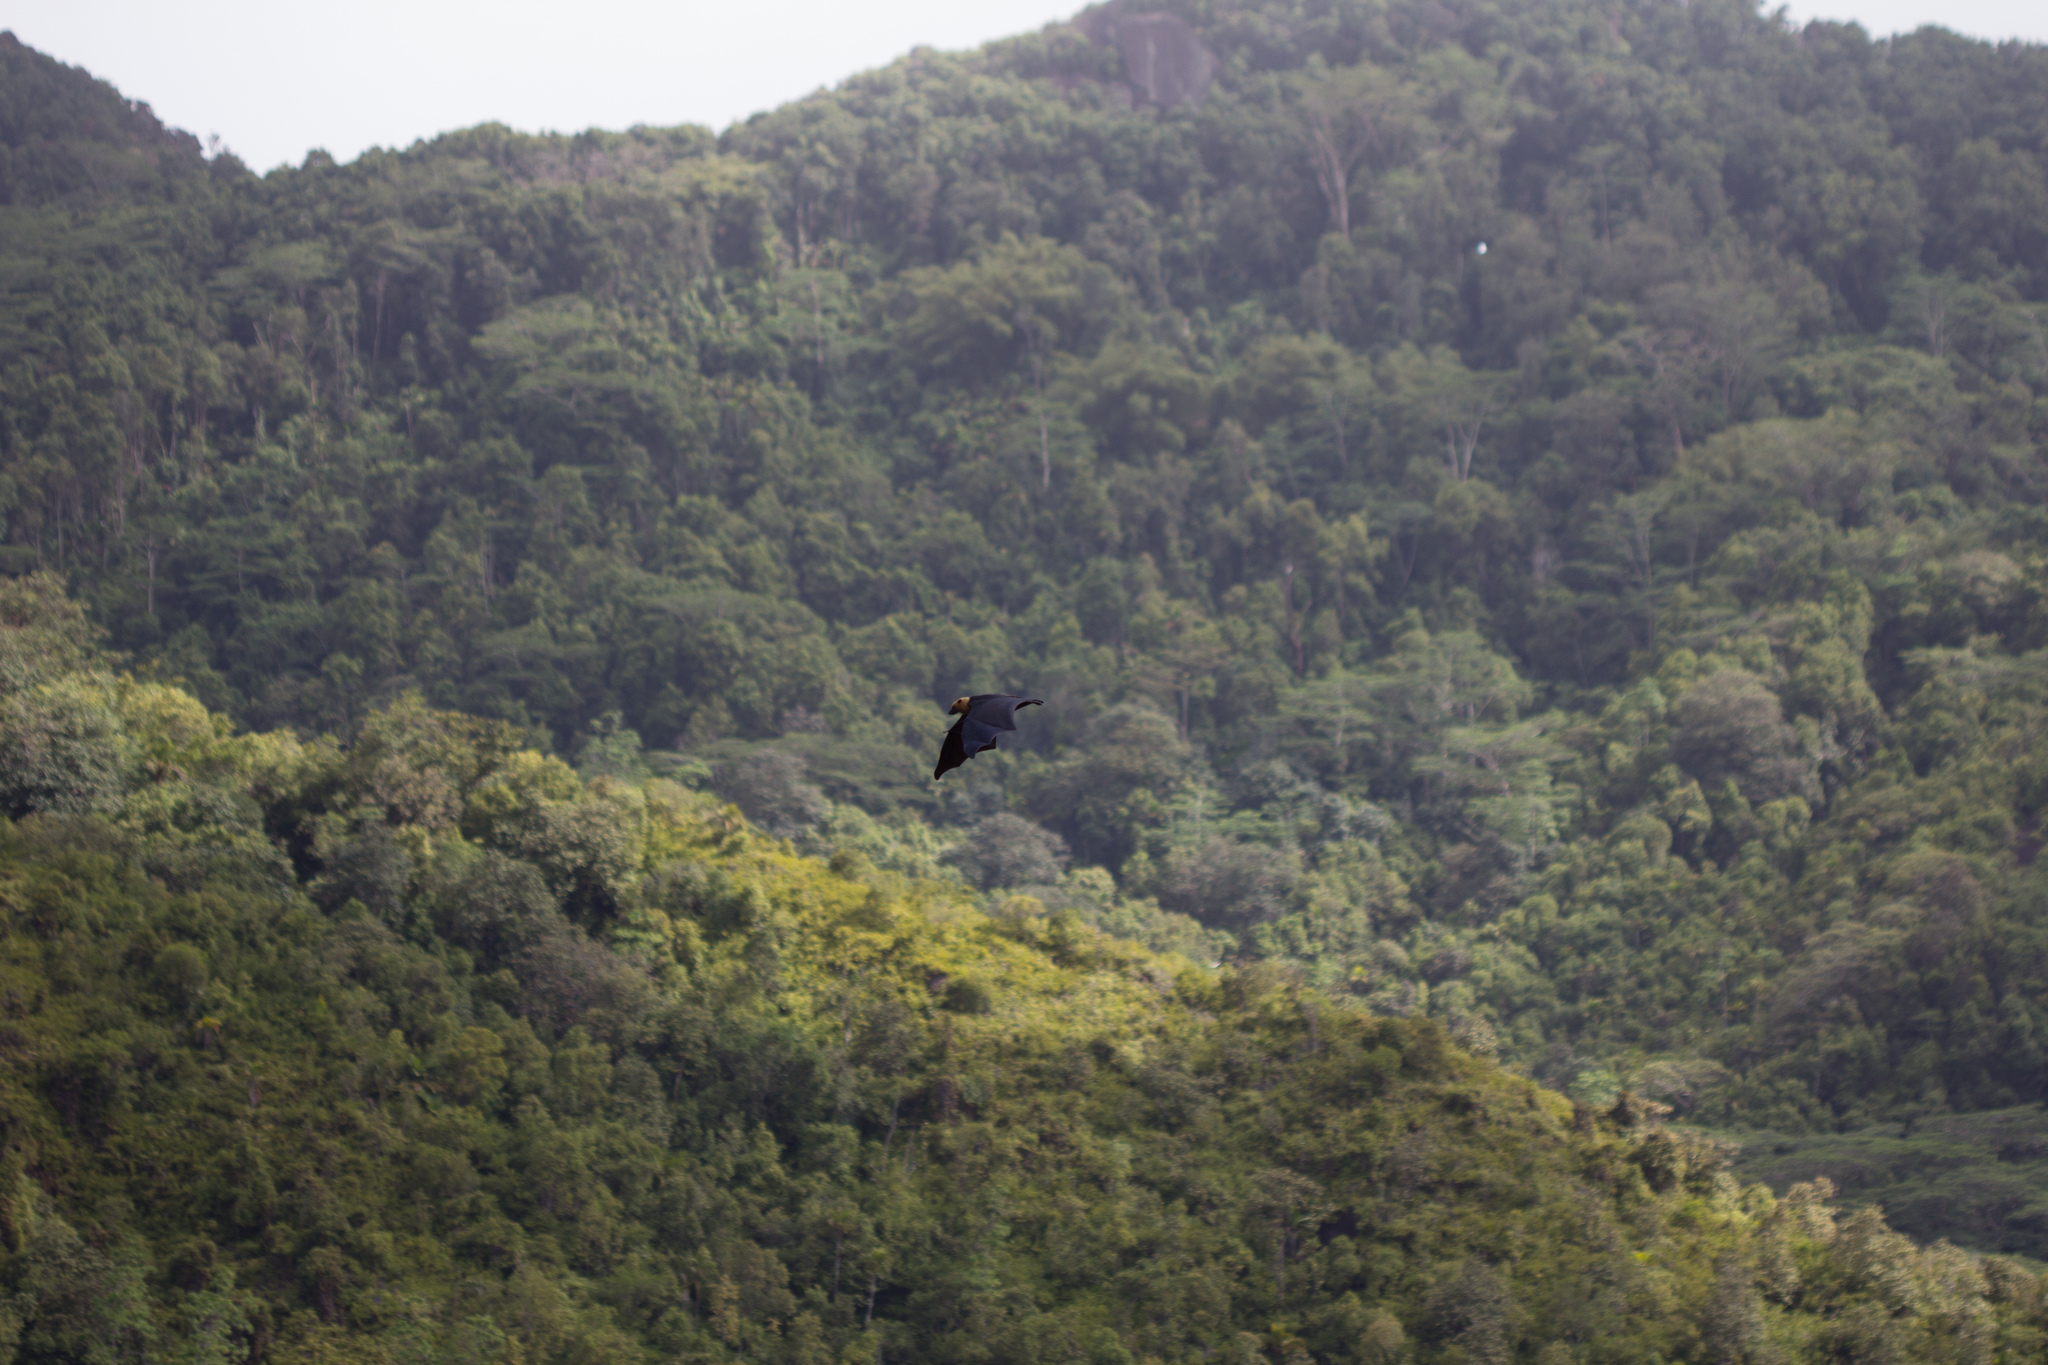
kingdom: Animalia
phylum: Chordata
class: Mammalia
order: Chiroptera
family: Pteropodidae
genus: Pteropus
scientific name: Pteropus seychellensis
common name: Seychelles flying fox
